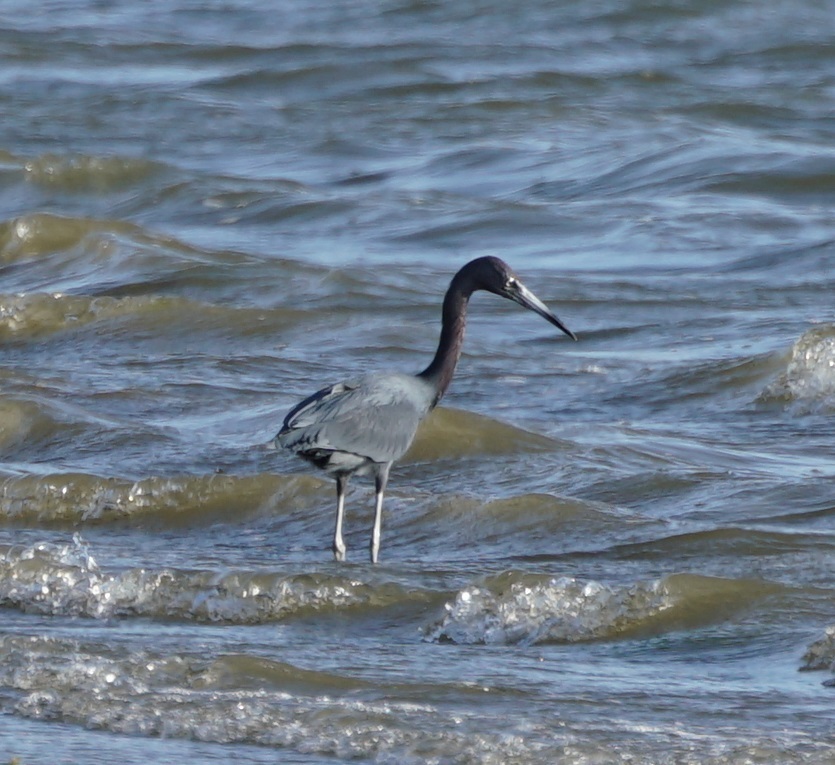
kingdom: Animalia
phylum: Chordata
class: Aves
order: Pelecaniformes
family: Ardeidae
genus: Egretta
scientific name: Egretta caerulea
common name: Little blue heron
